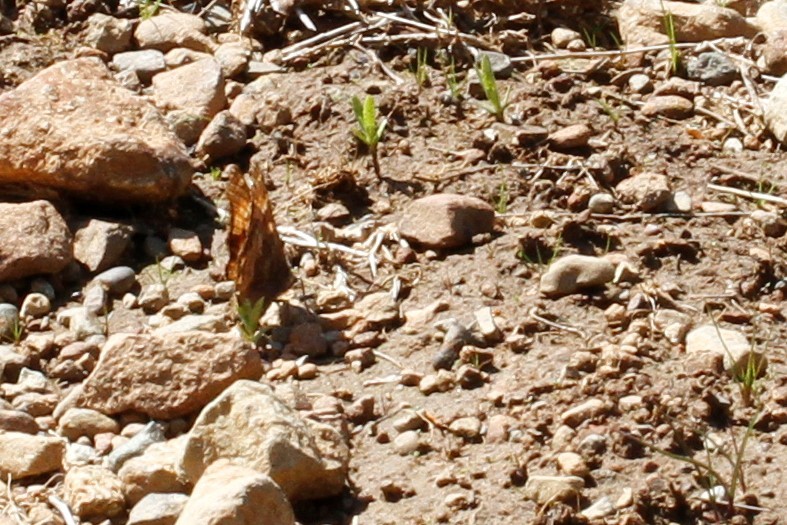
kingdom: Animalia
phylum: Arthropoda
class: Insecta
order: Lepidoptera
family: Nymphalidae
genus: Nymphalis
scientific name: Nymphalis californica
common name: California tortoiseshell
